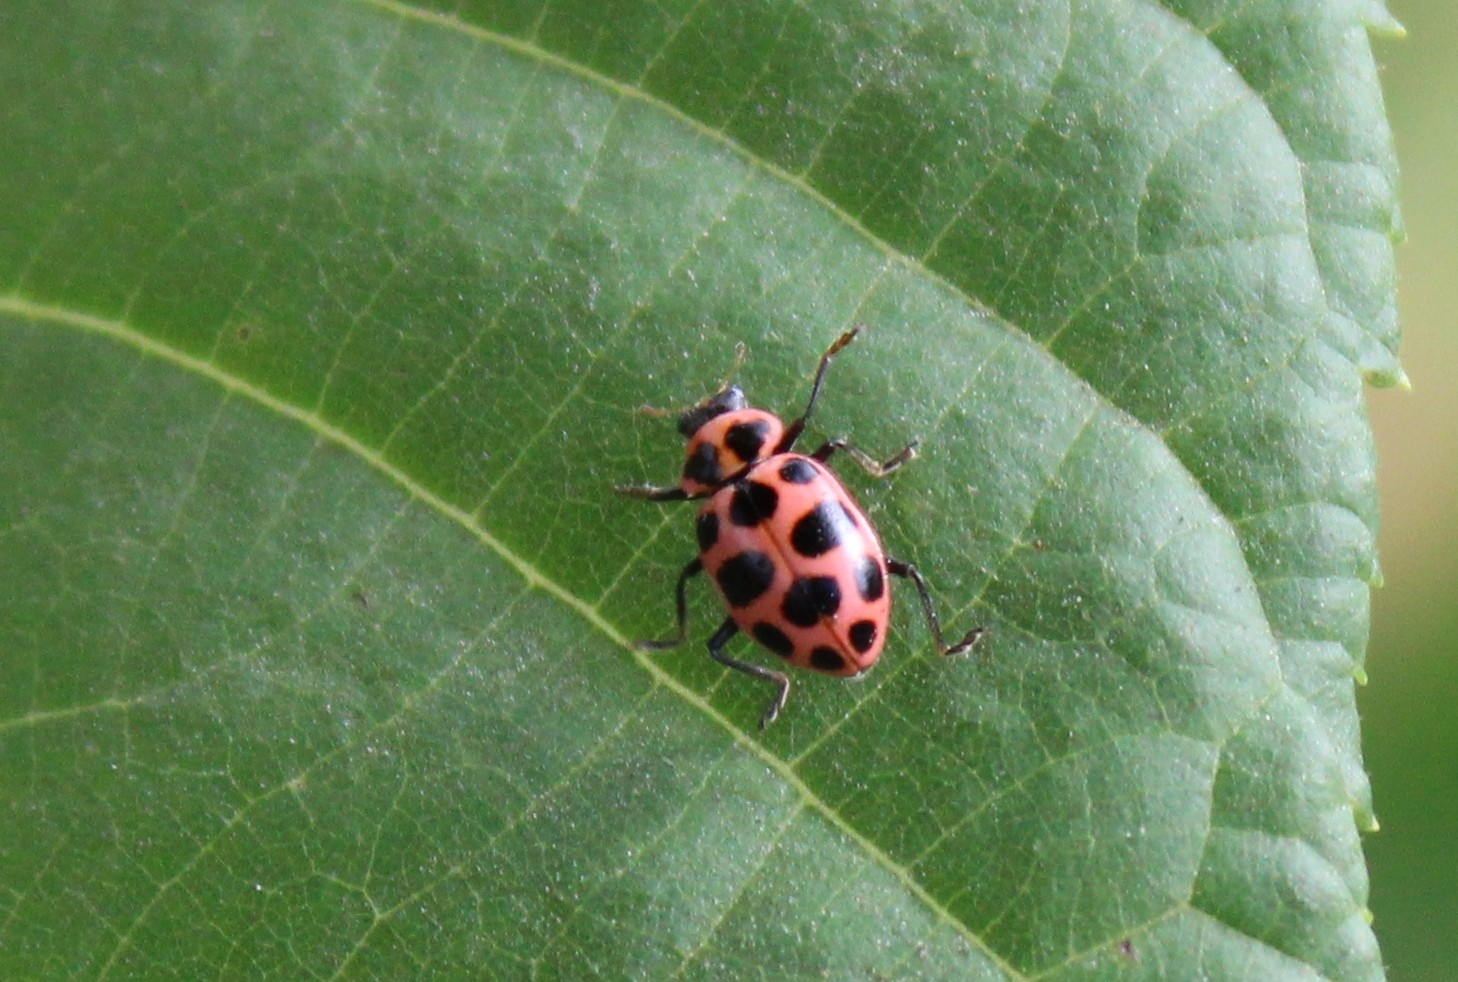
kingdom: Animalia
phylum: Arthropoda
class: Insecta
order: Coleoptera
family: Coccinellidae
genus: Coleomegilla
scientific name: Coleomegilla maculata
